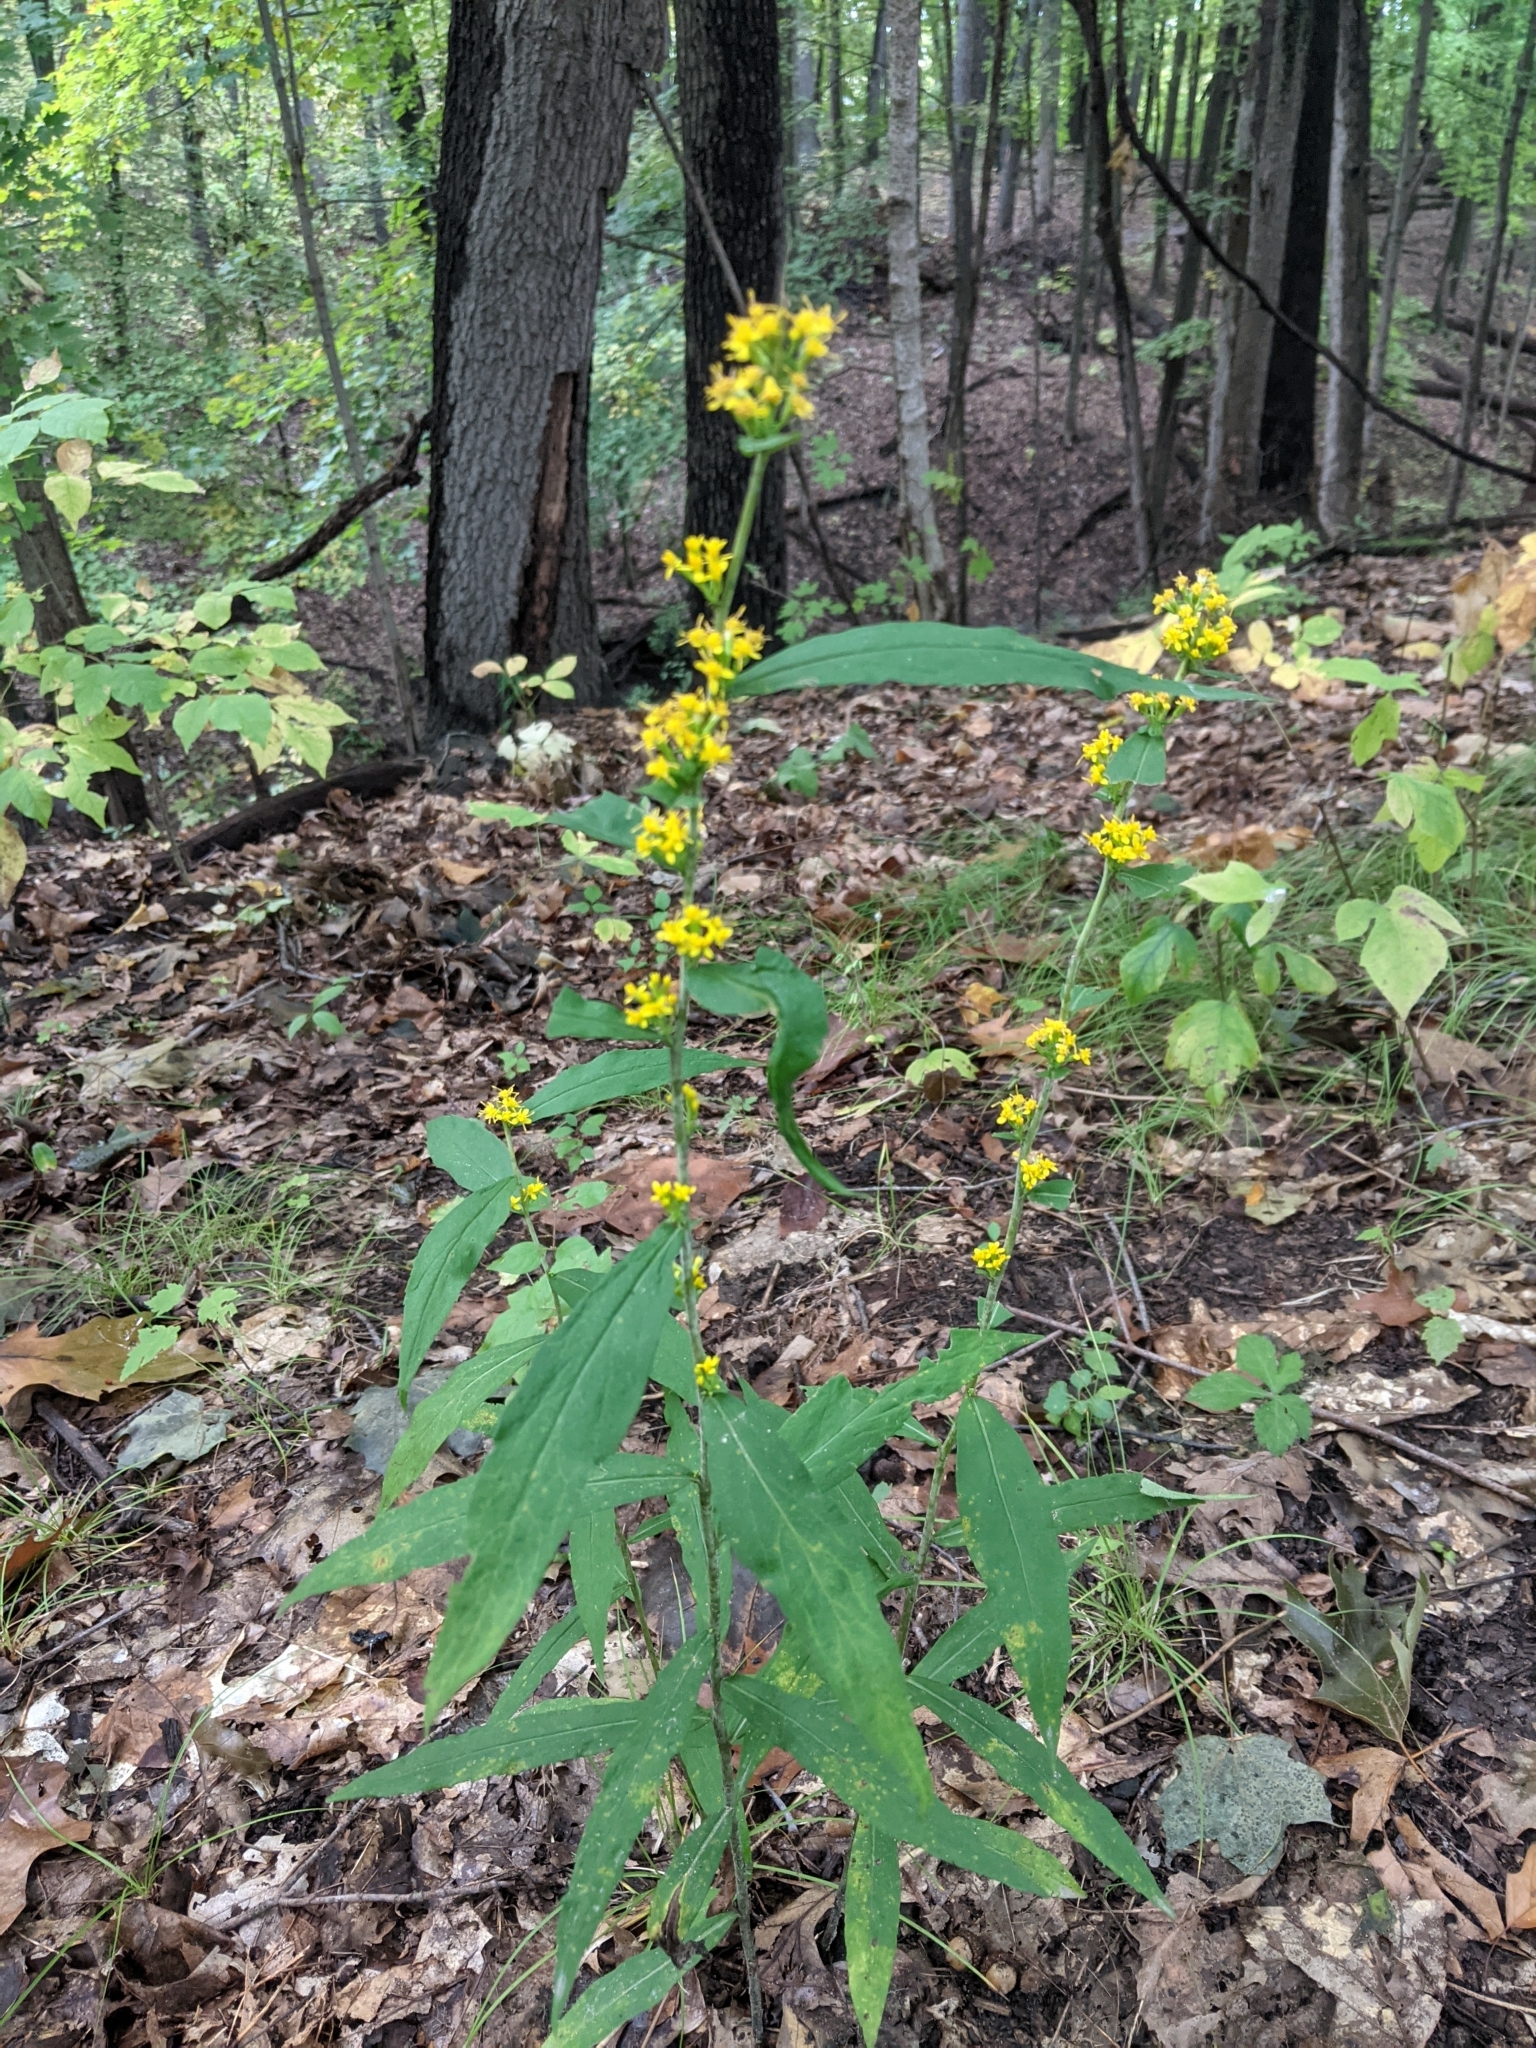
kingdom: Plantae
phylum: Tracheophyta
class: Magnoliopsida
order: Asterales
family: Asteraceae
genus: Solidago
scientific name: Solidago caesia
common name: Woodland goldenrod
